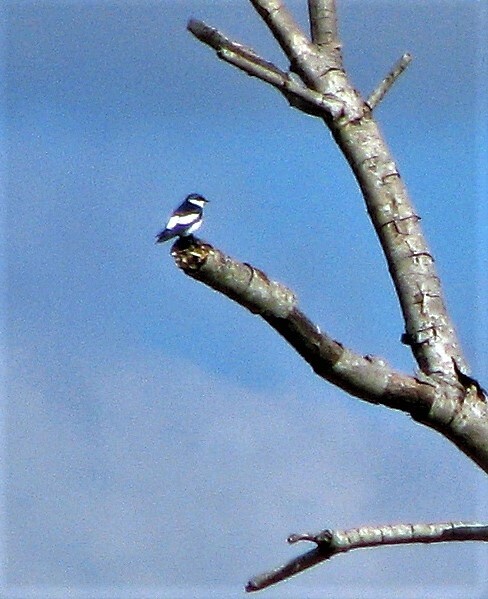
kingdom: Animalia
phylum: Chordata
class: Aves
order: Passeriformes
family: Hirundinidae
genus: Tachycineta
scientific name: Tachycineta albiventer
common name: White-winged swallow
